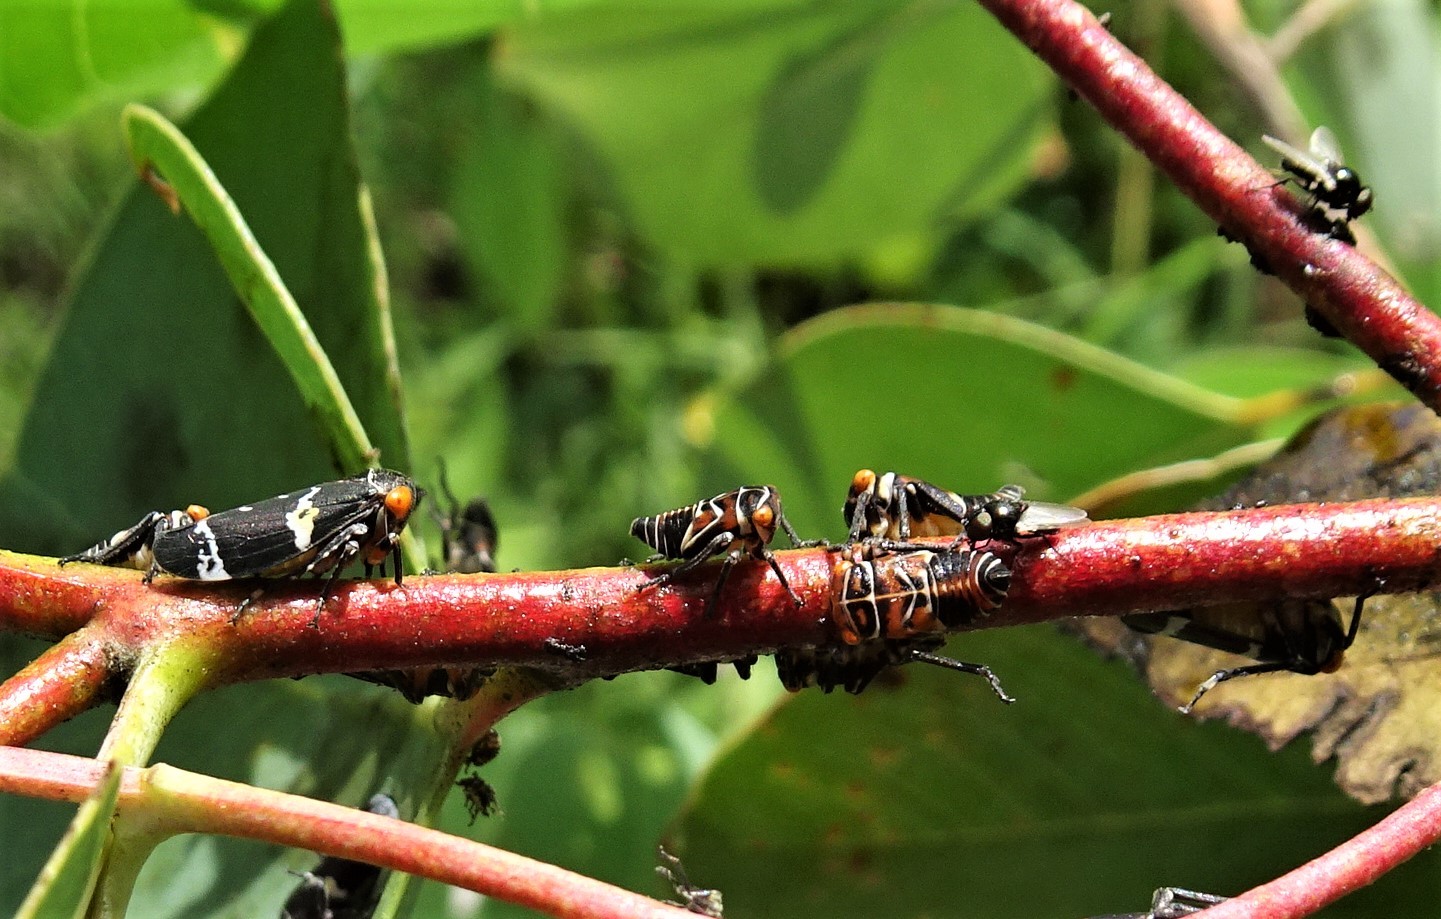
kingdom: Animalia
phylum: Arthropoda
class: Insecta
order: Hemiptera
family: Cicadellidae
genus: Eurymeloides
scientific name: Eurymeloides pulchra
